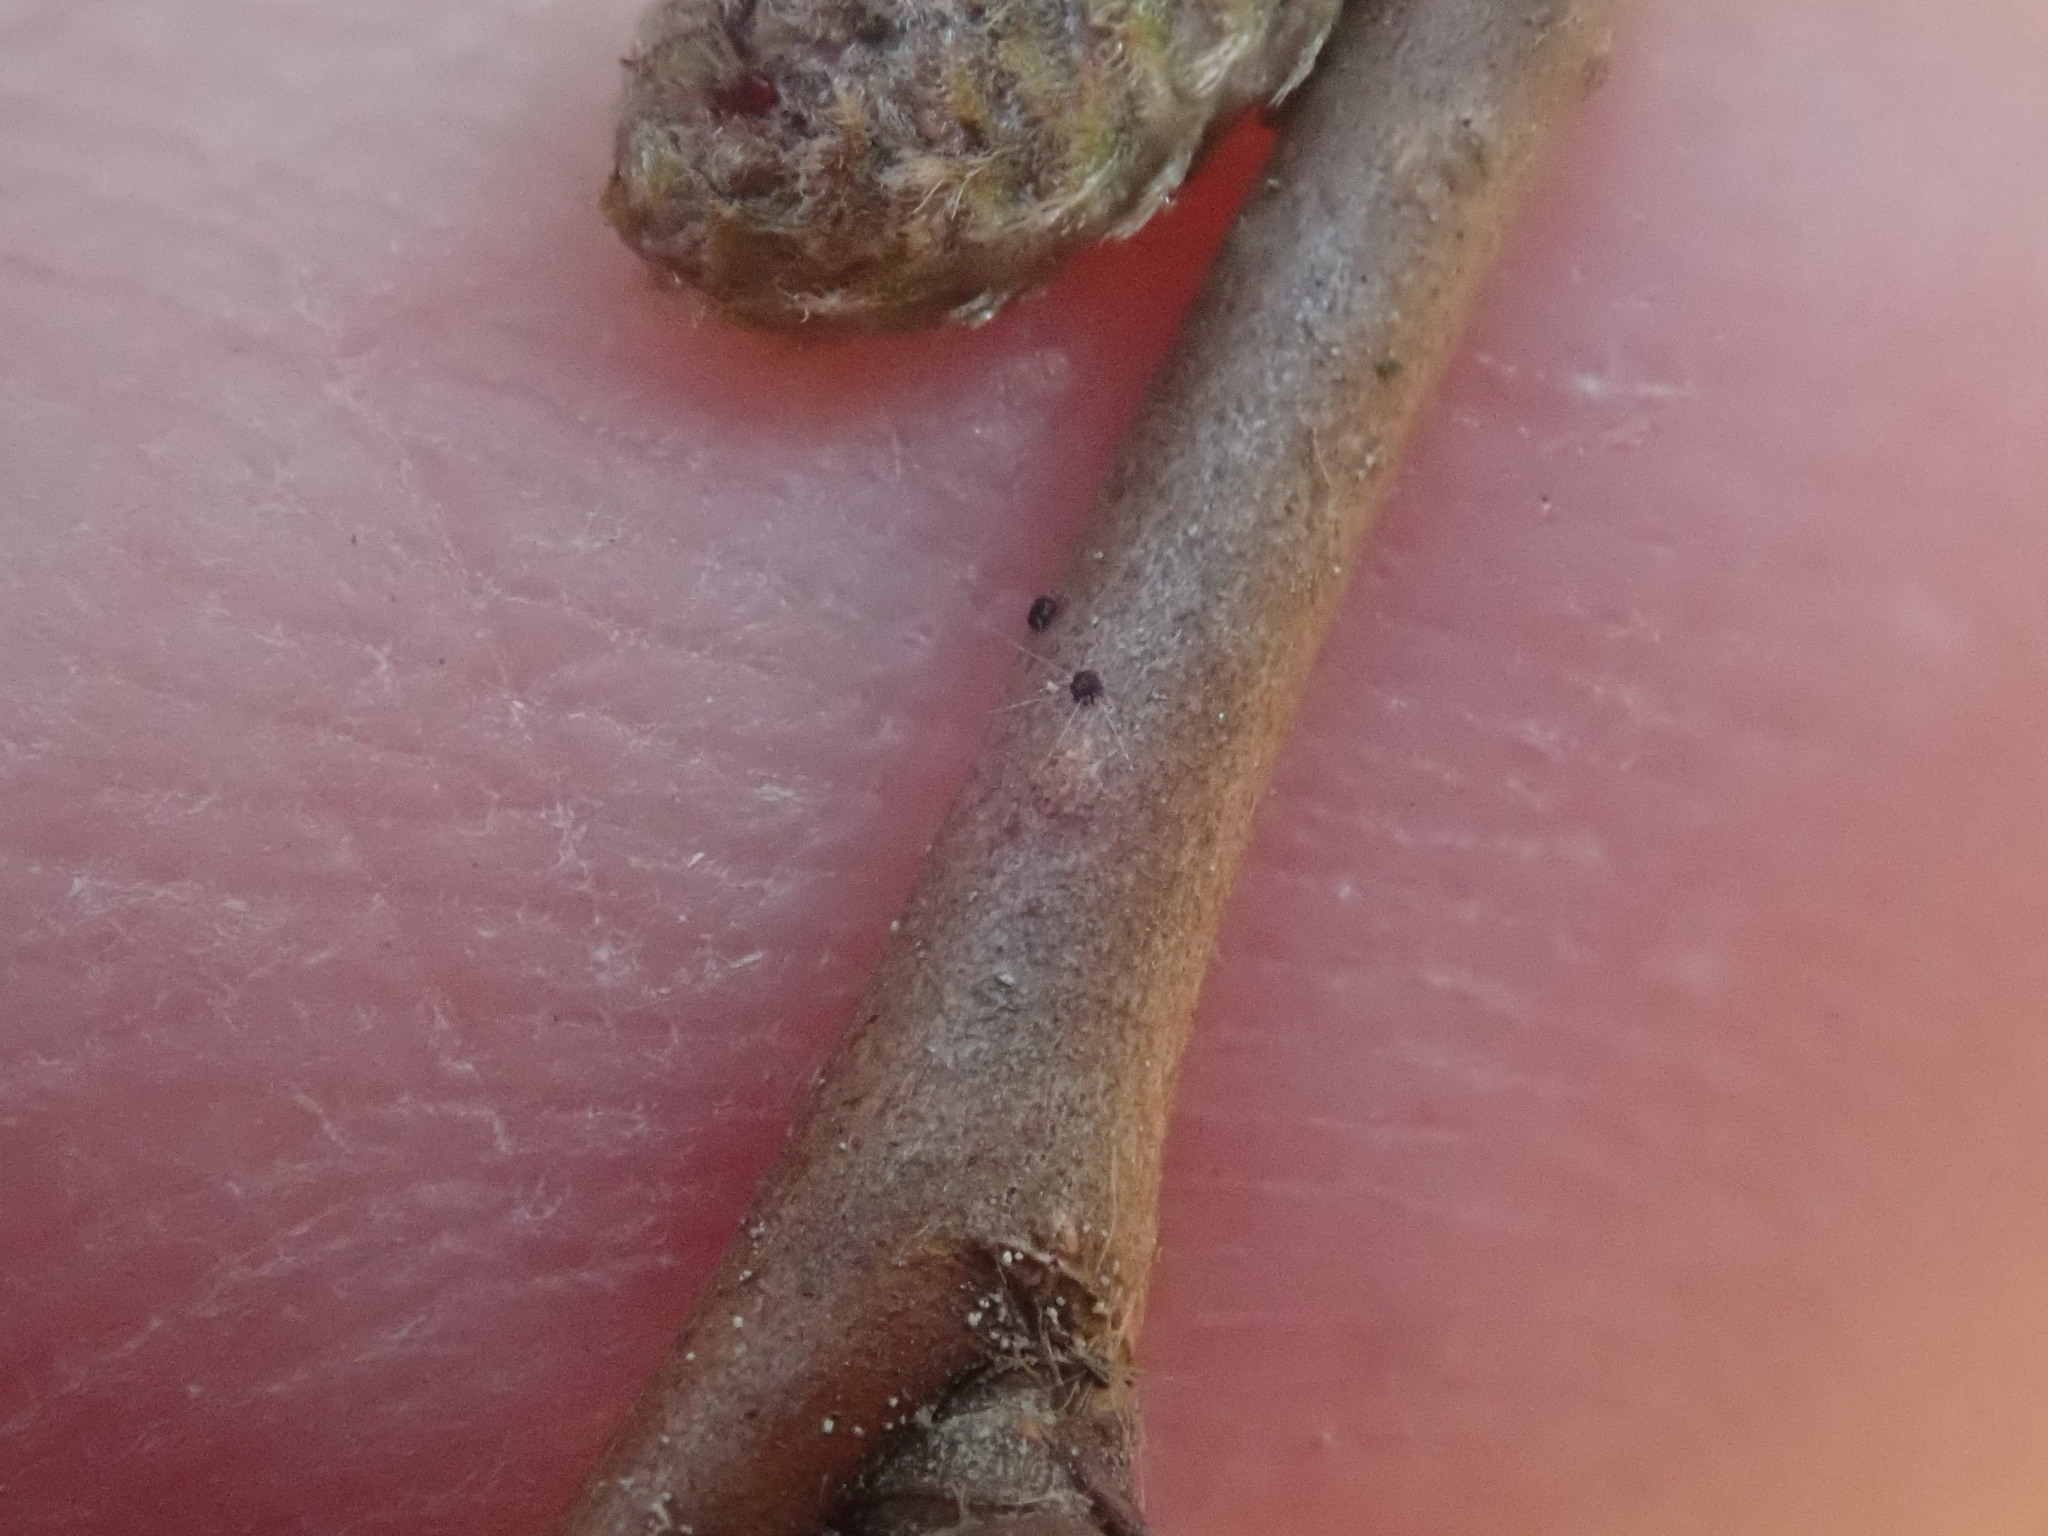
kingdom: Plantae
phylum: Tracheophyta
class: Magnoliopsida
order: Fagales
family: Betulaceae
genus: Corylus
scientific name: Corylus cornuta
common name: Beaked hazel
